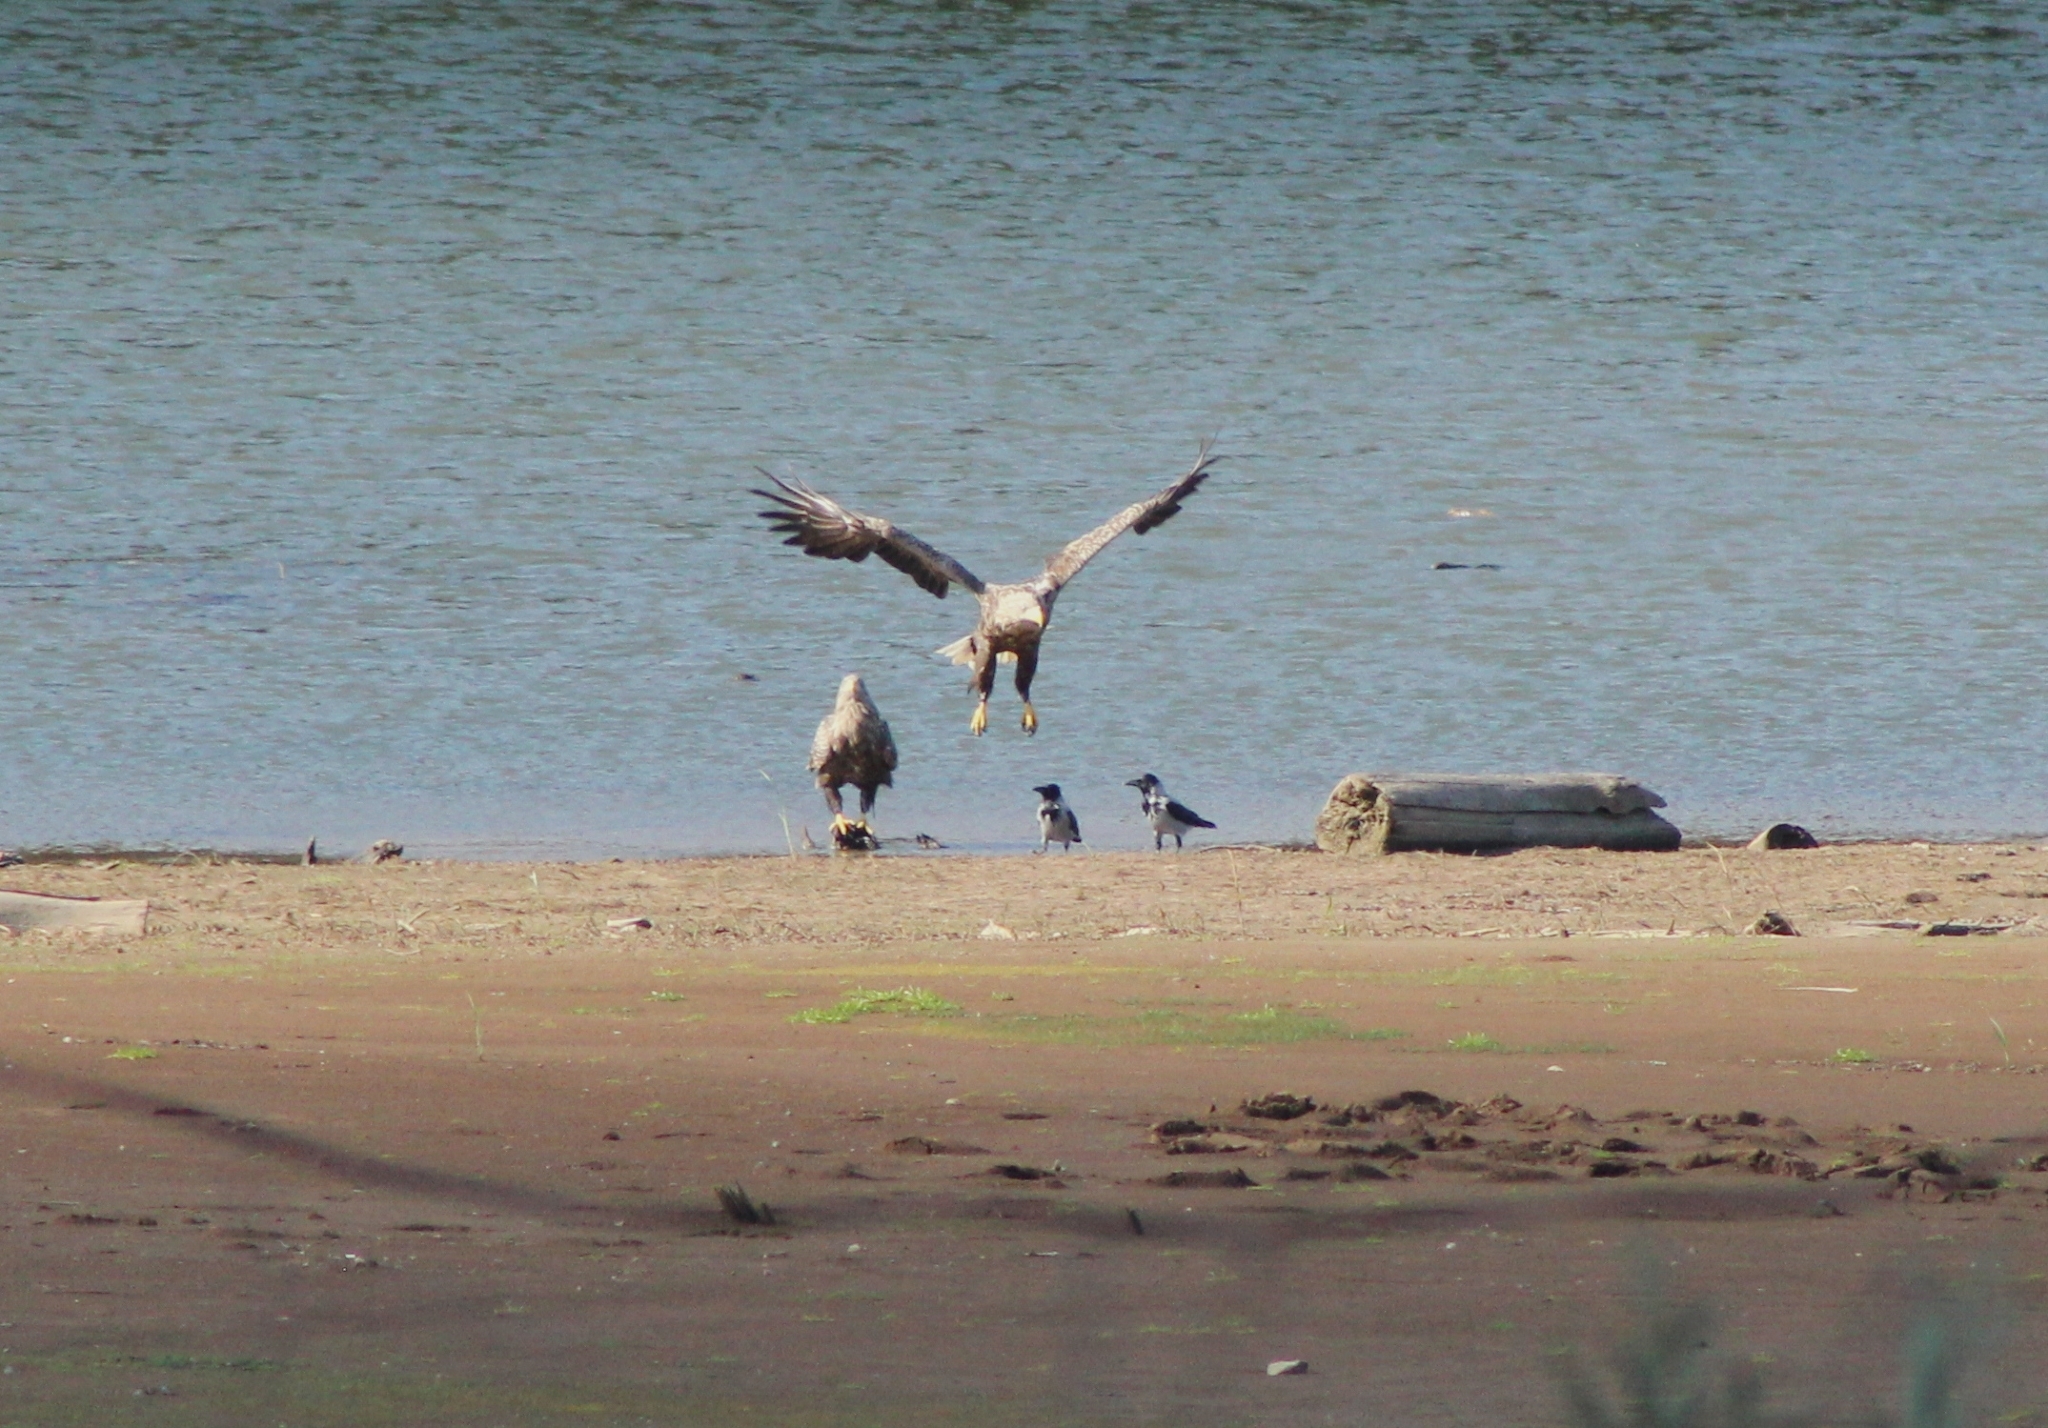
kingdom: Animalia
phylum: Chordata
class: Aves
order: Accipitriformes
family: Accipitridae
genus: Haliaeetus
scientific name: Haliaeetus albicilla
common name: White-tailed eagle
